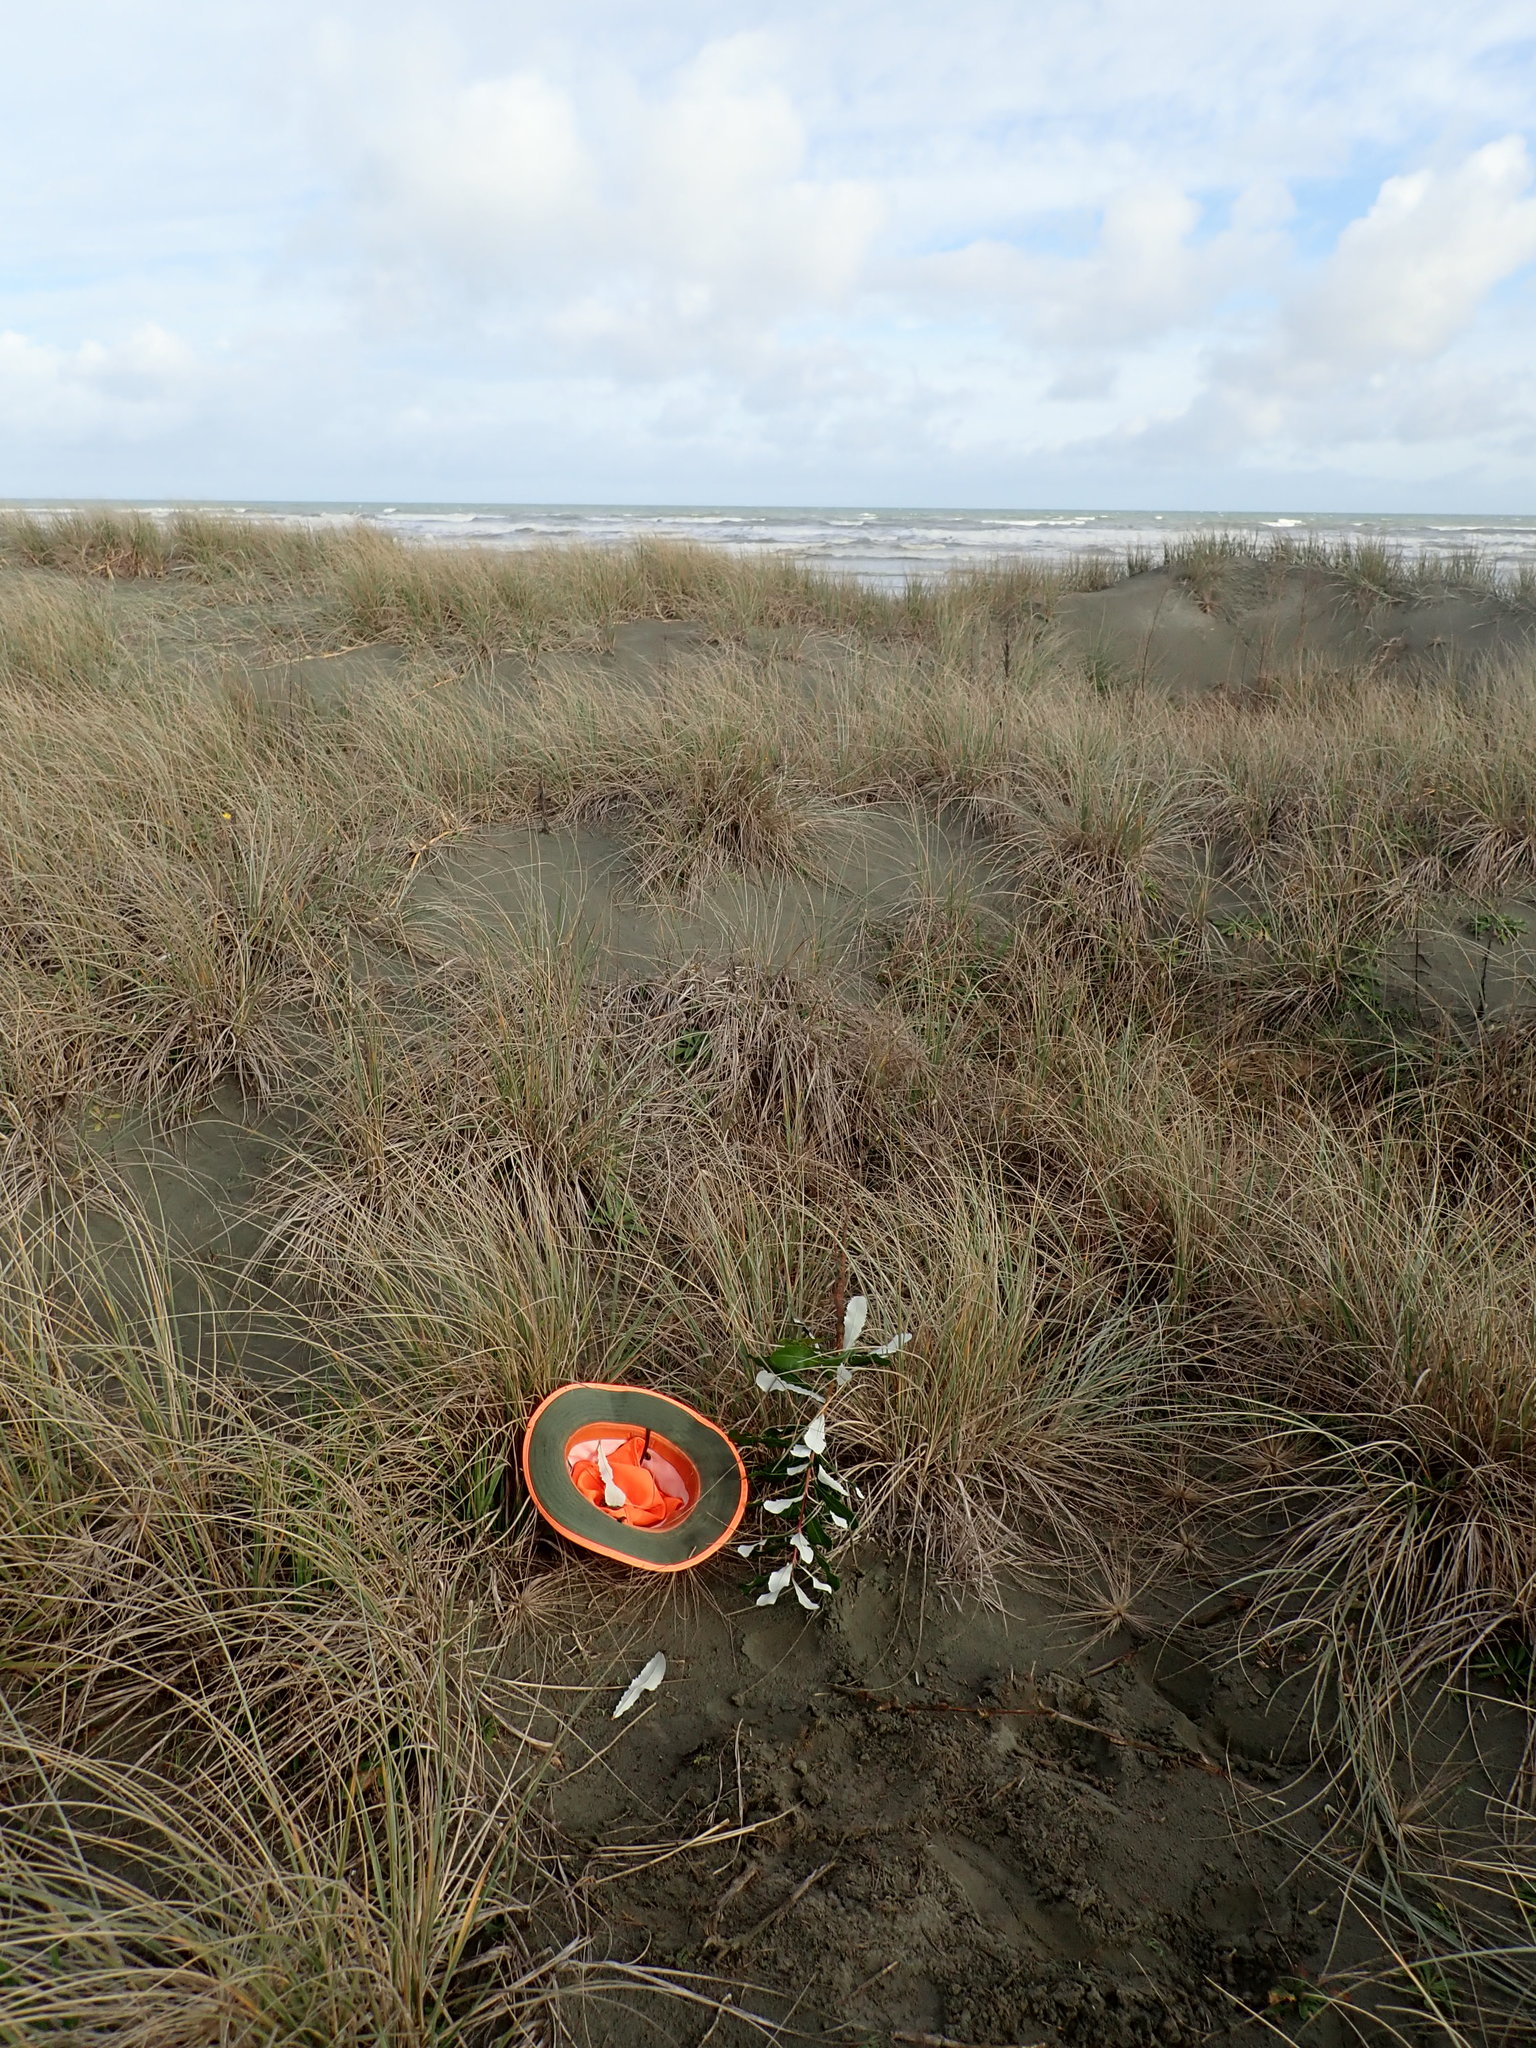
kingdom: Plantae
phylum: Tracheophyta
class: Magnoliopsida
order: Proteales
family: Proteaceae
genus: Banksia
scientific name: Banksia integrifolia
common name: White-honeysuckle
